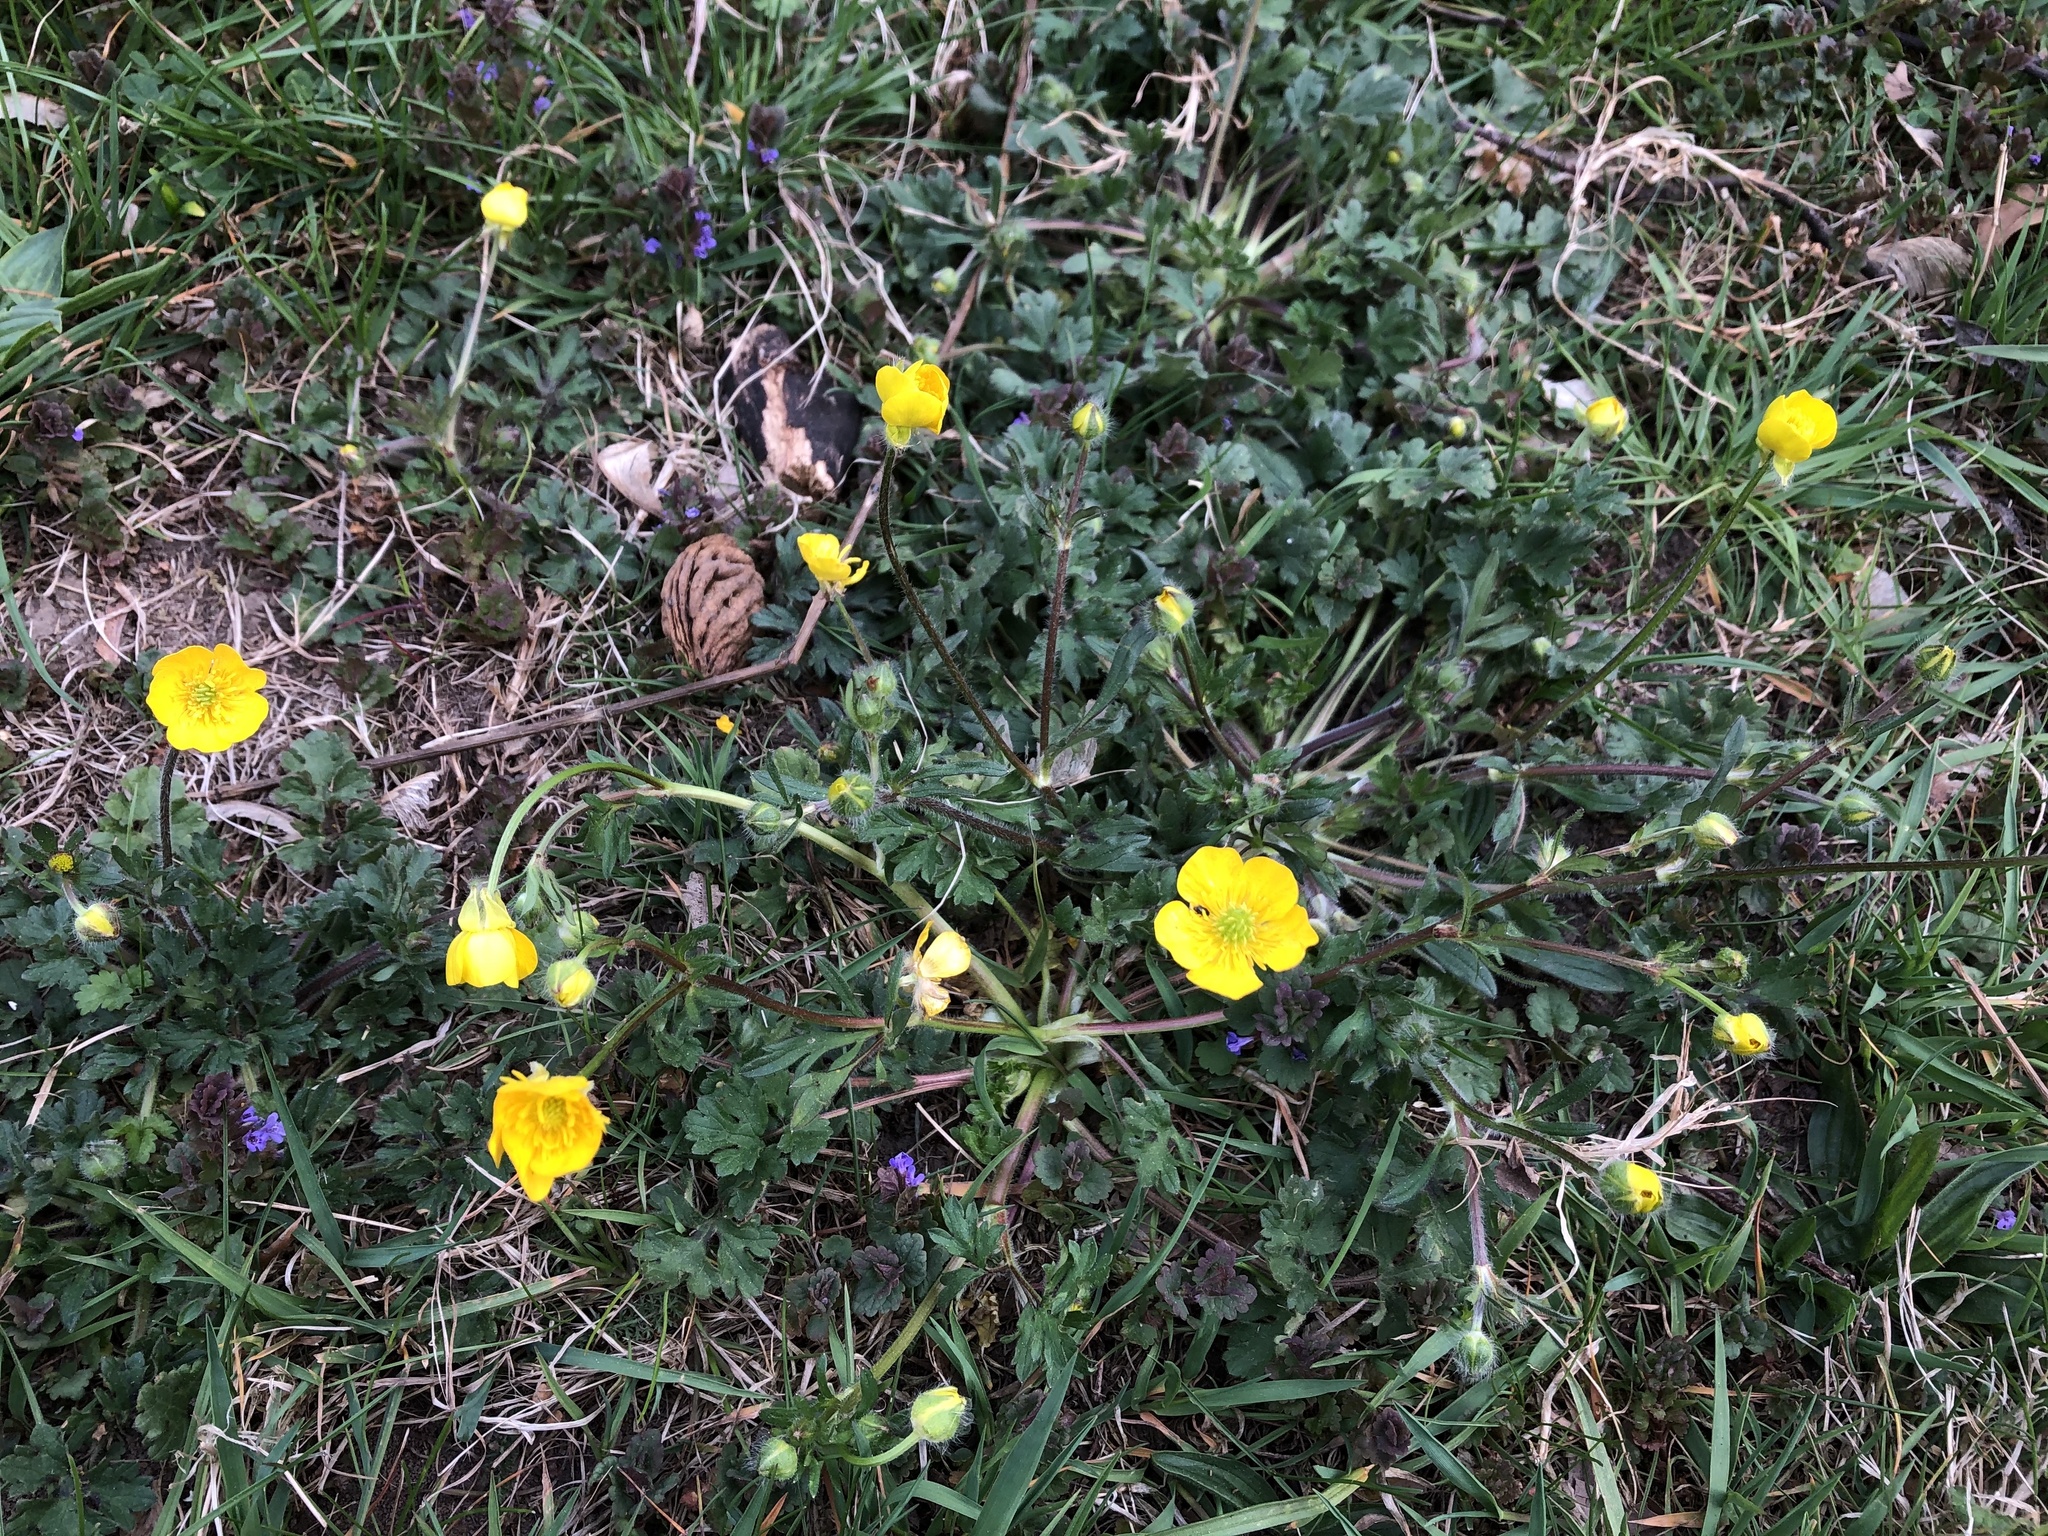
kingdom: Plantae
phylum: Tracheophyta
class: Magnoliopsida
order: Ranunculales
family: Ranunculaceae
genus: Ranunculus
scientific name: Ranunculus bulbosus
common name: Bulbous buttercup
